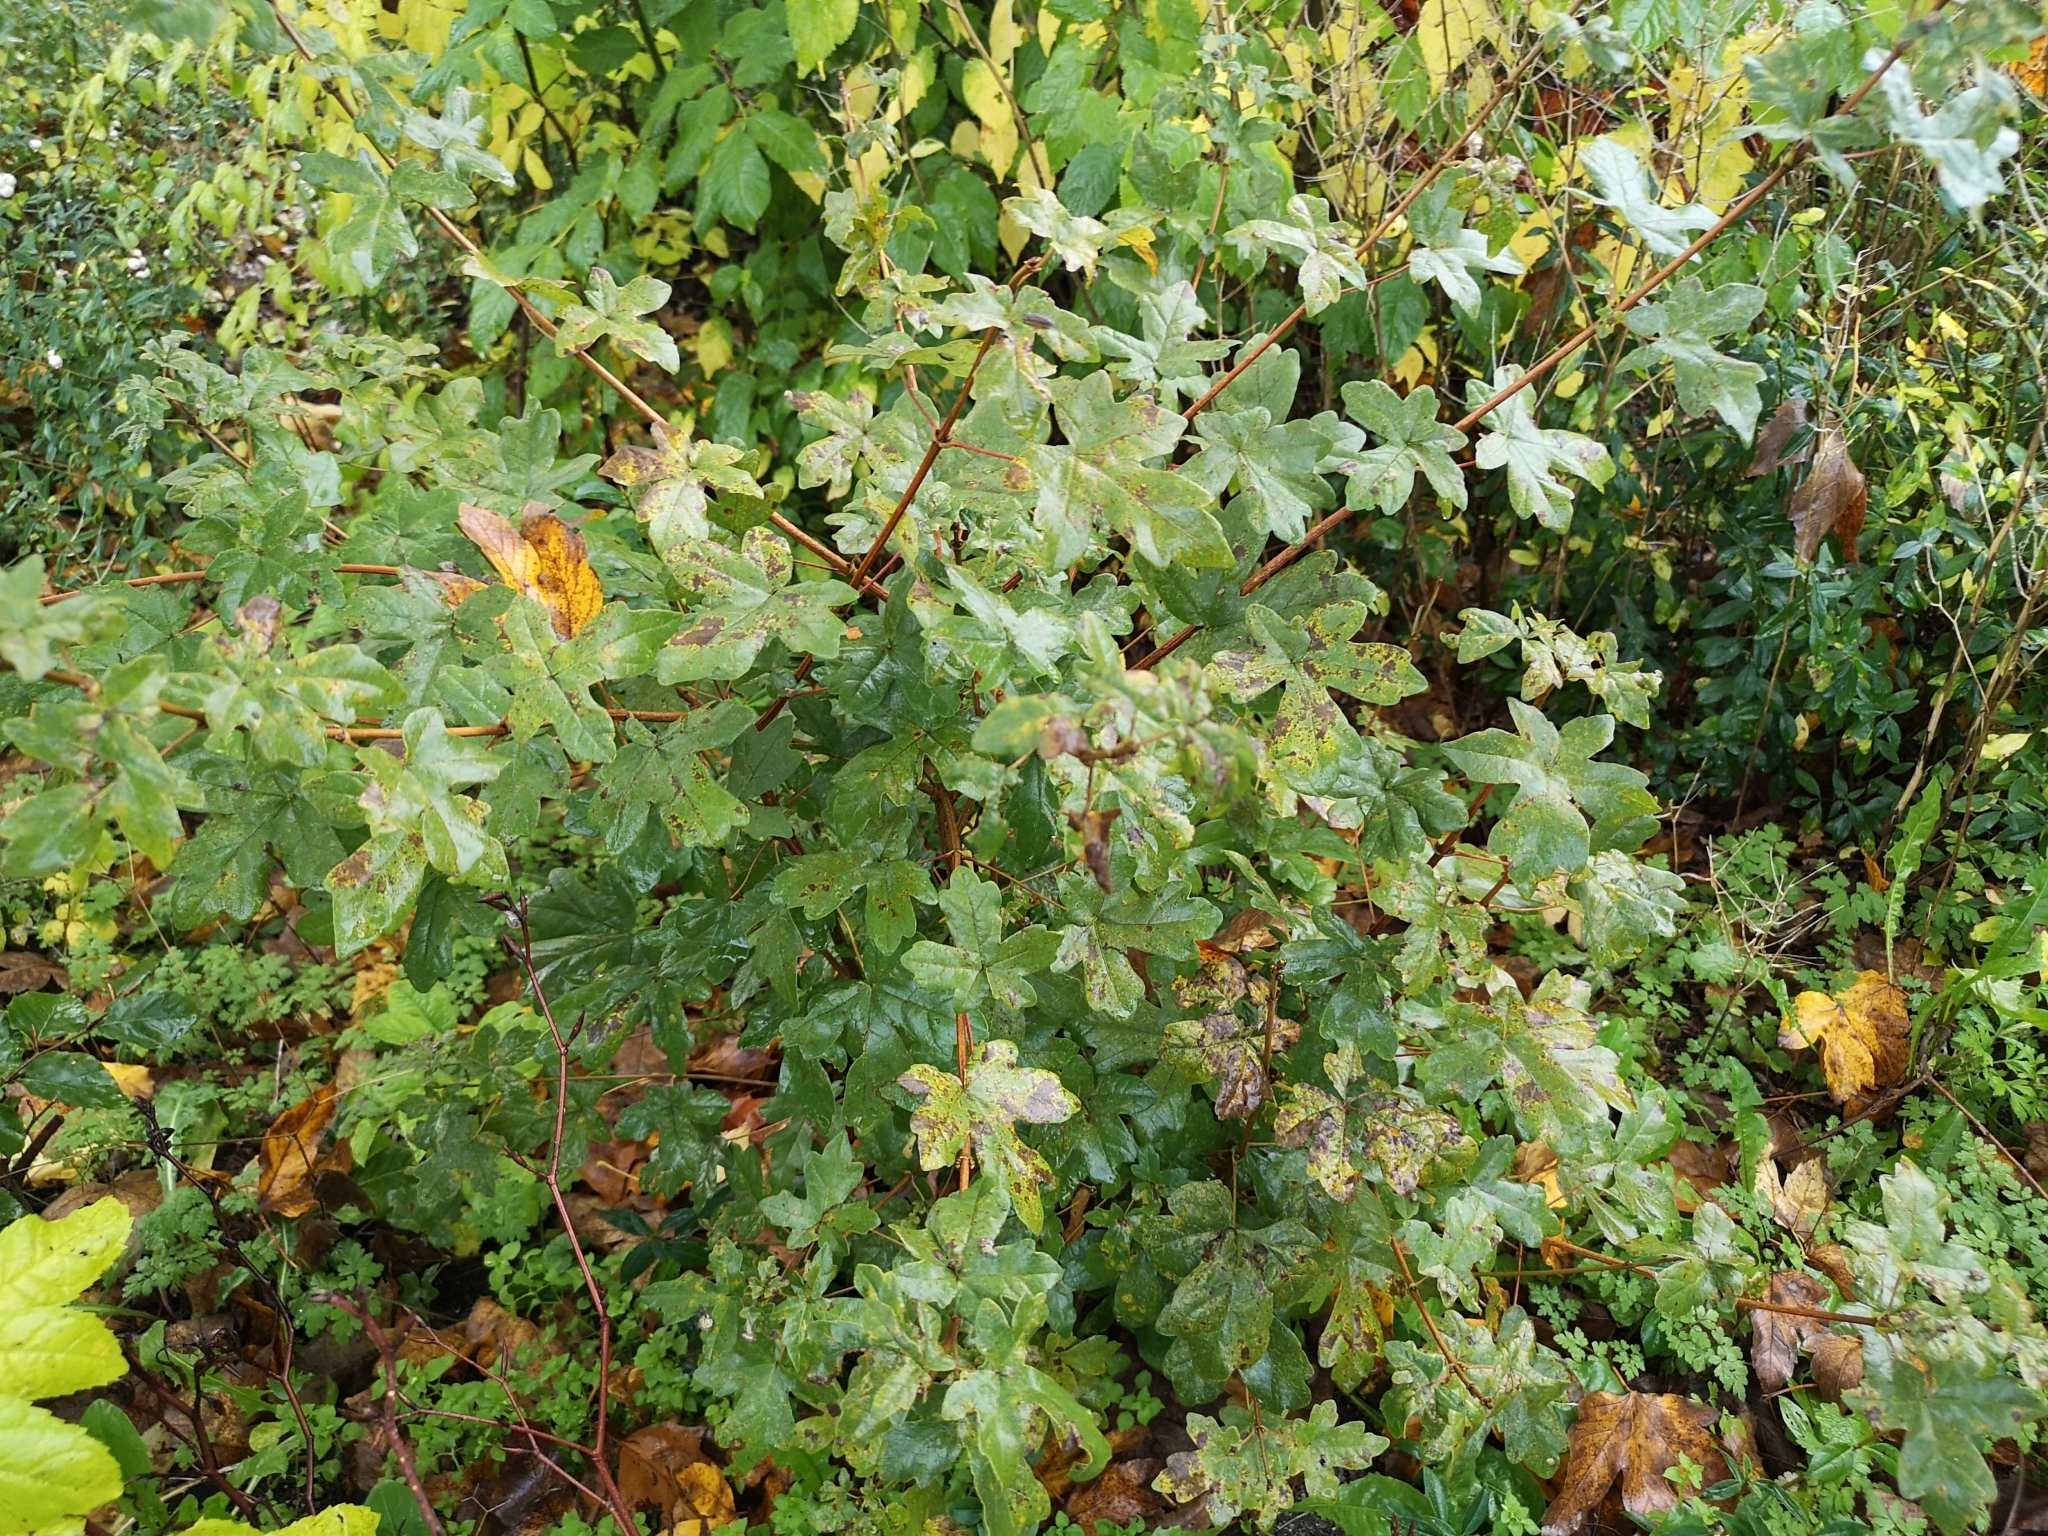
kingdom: Plantae
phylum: Tracheophyta
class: Magnoliopsida
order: Sapindales
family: Sapindaceae
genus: Acer
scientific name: Acer campestre
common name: Field maple
